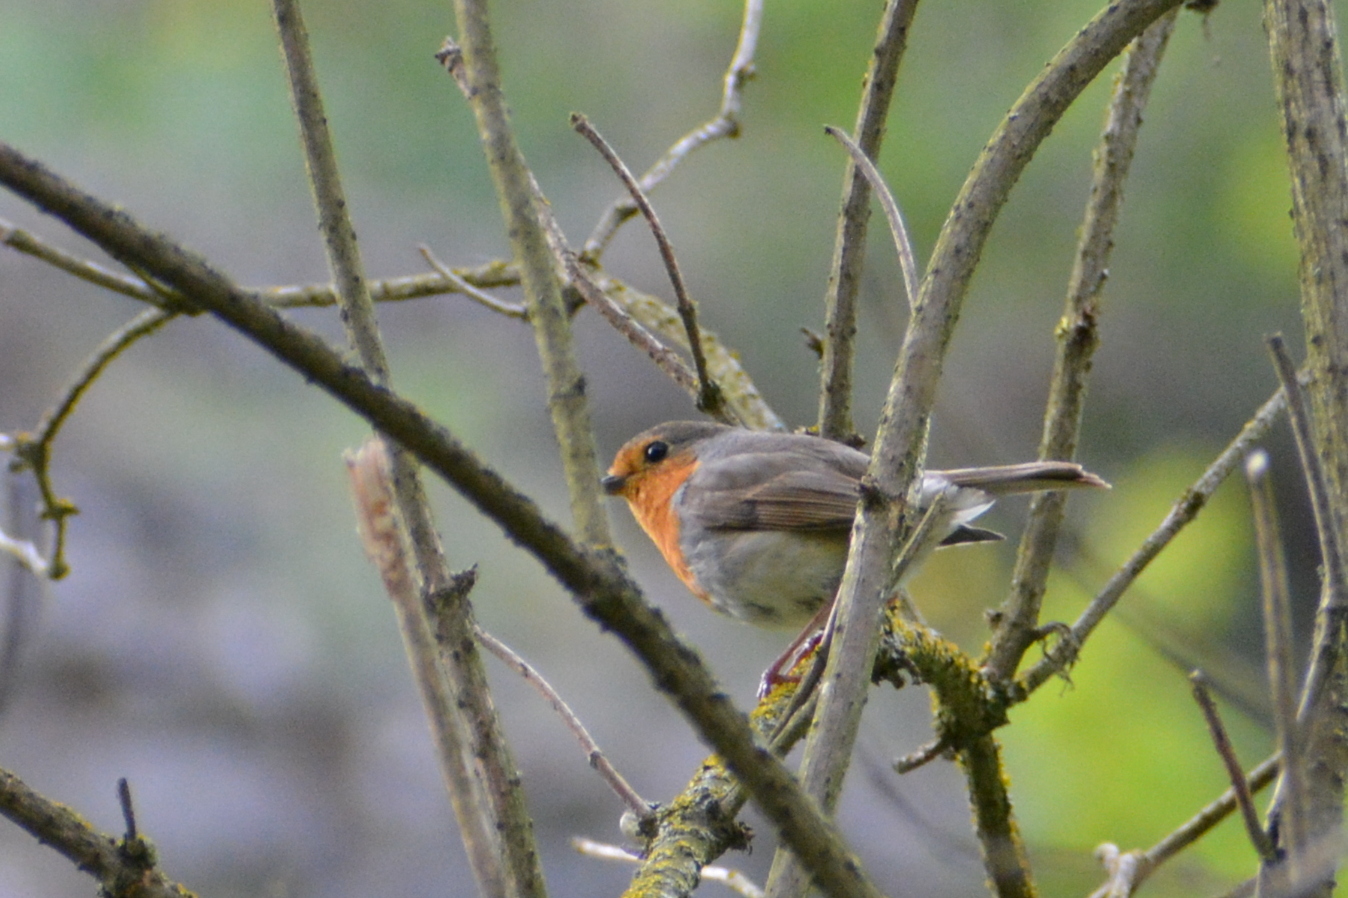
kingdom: Animalia
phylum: Chordata
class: Aves
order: Passeriformes
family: Muscicapidae
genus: Erithacus
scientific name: Erithacus rubecula
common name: European robin
